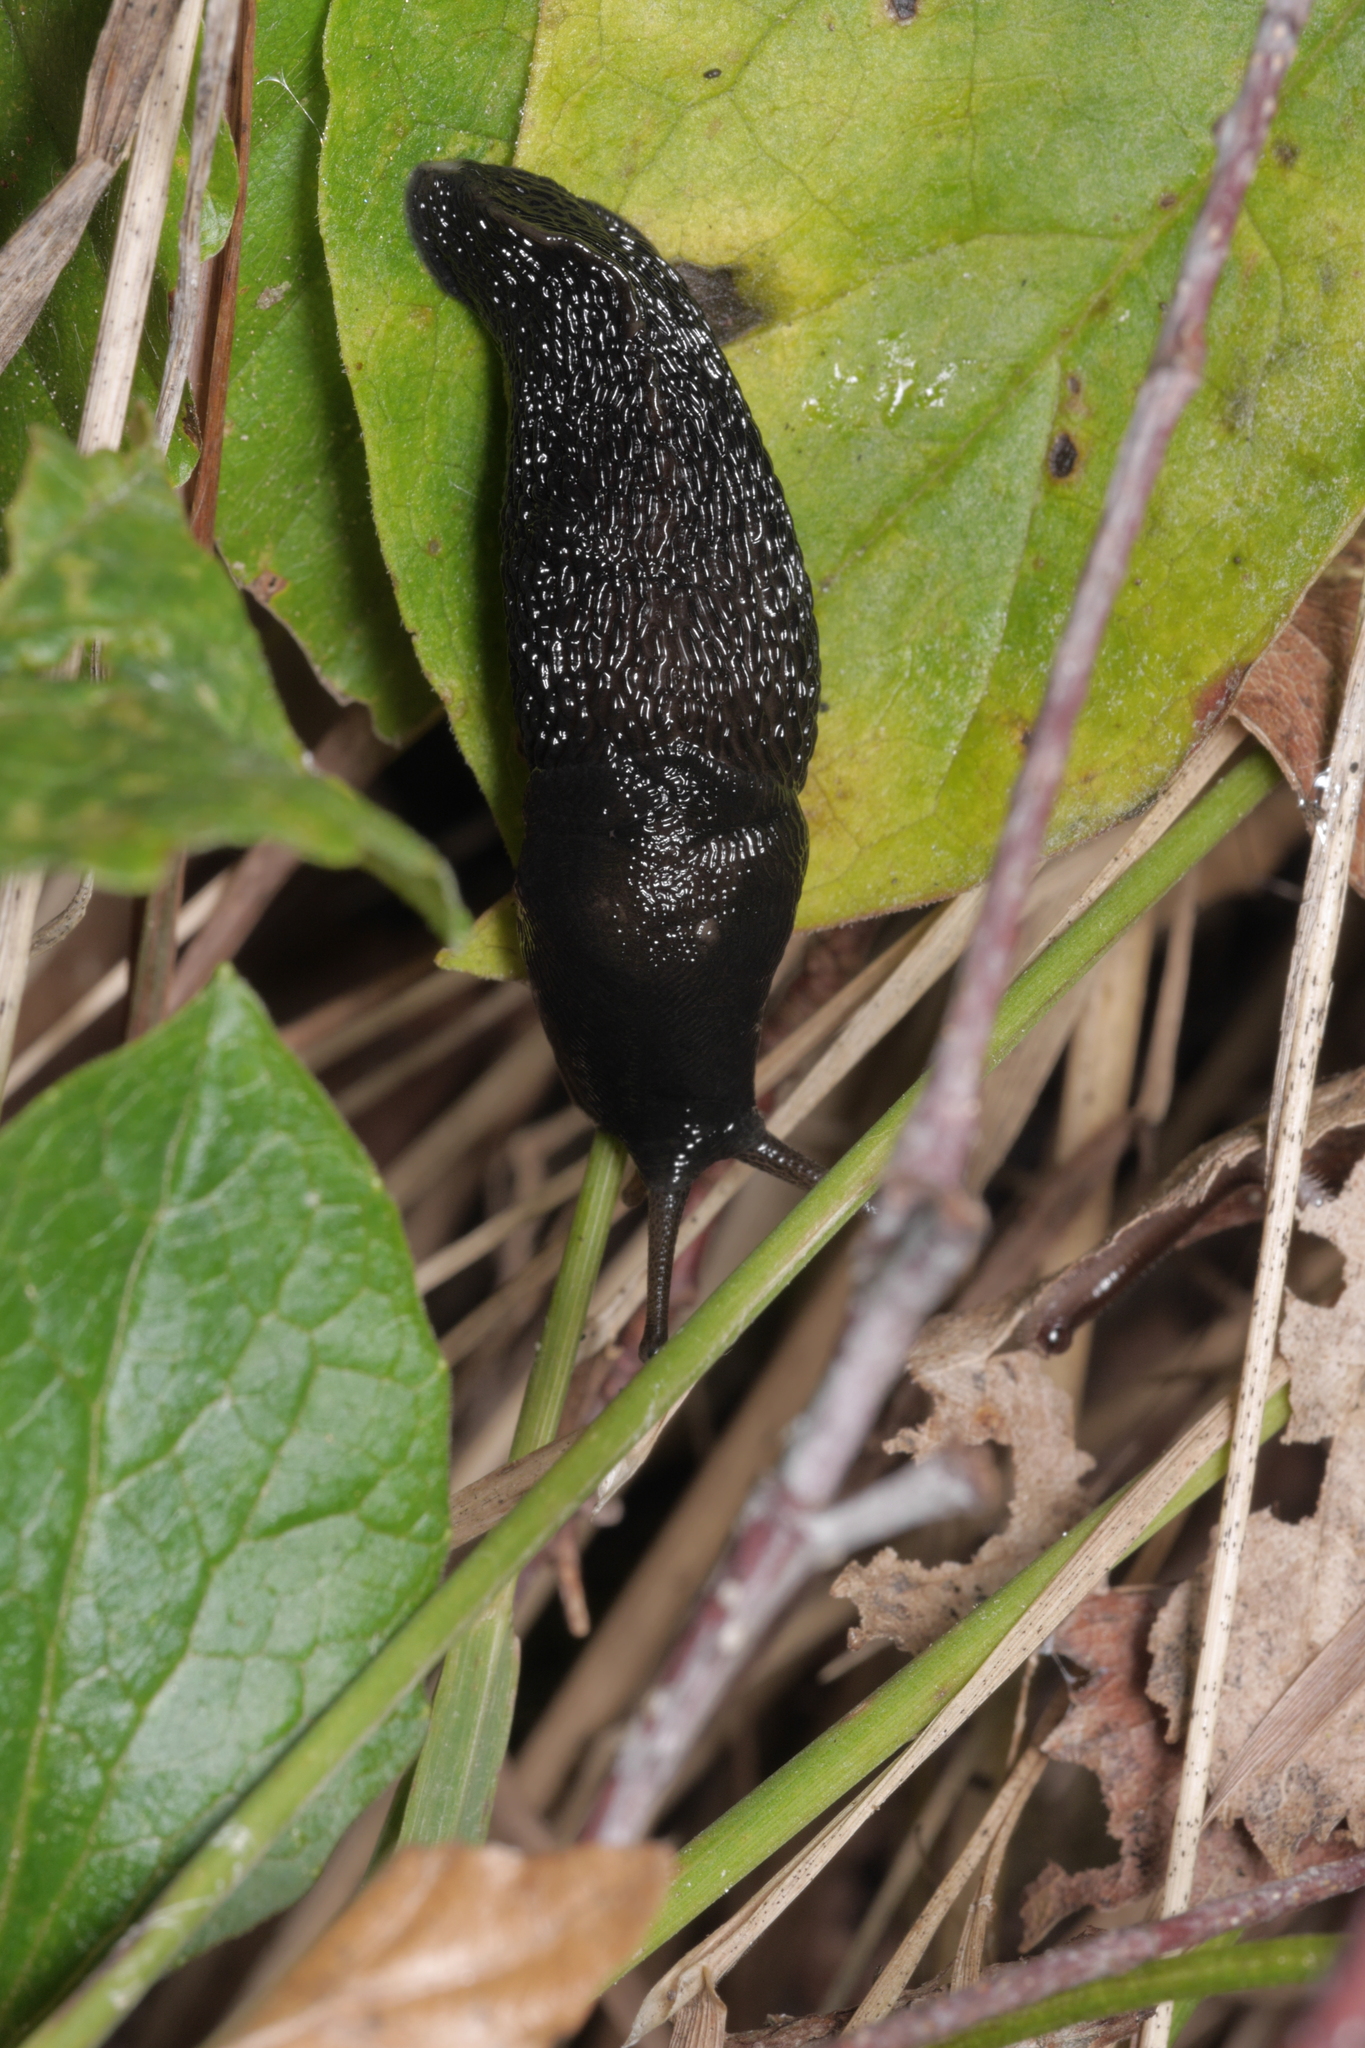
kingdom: Animalia
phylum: Mollusca
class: Gastropoda
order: Stylommatophora
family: Limacidae
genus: Limax
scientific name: Limax cinereoniger
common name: Ash-black slug
